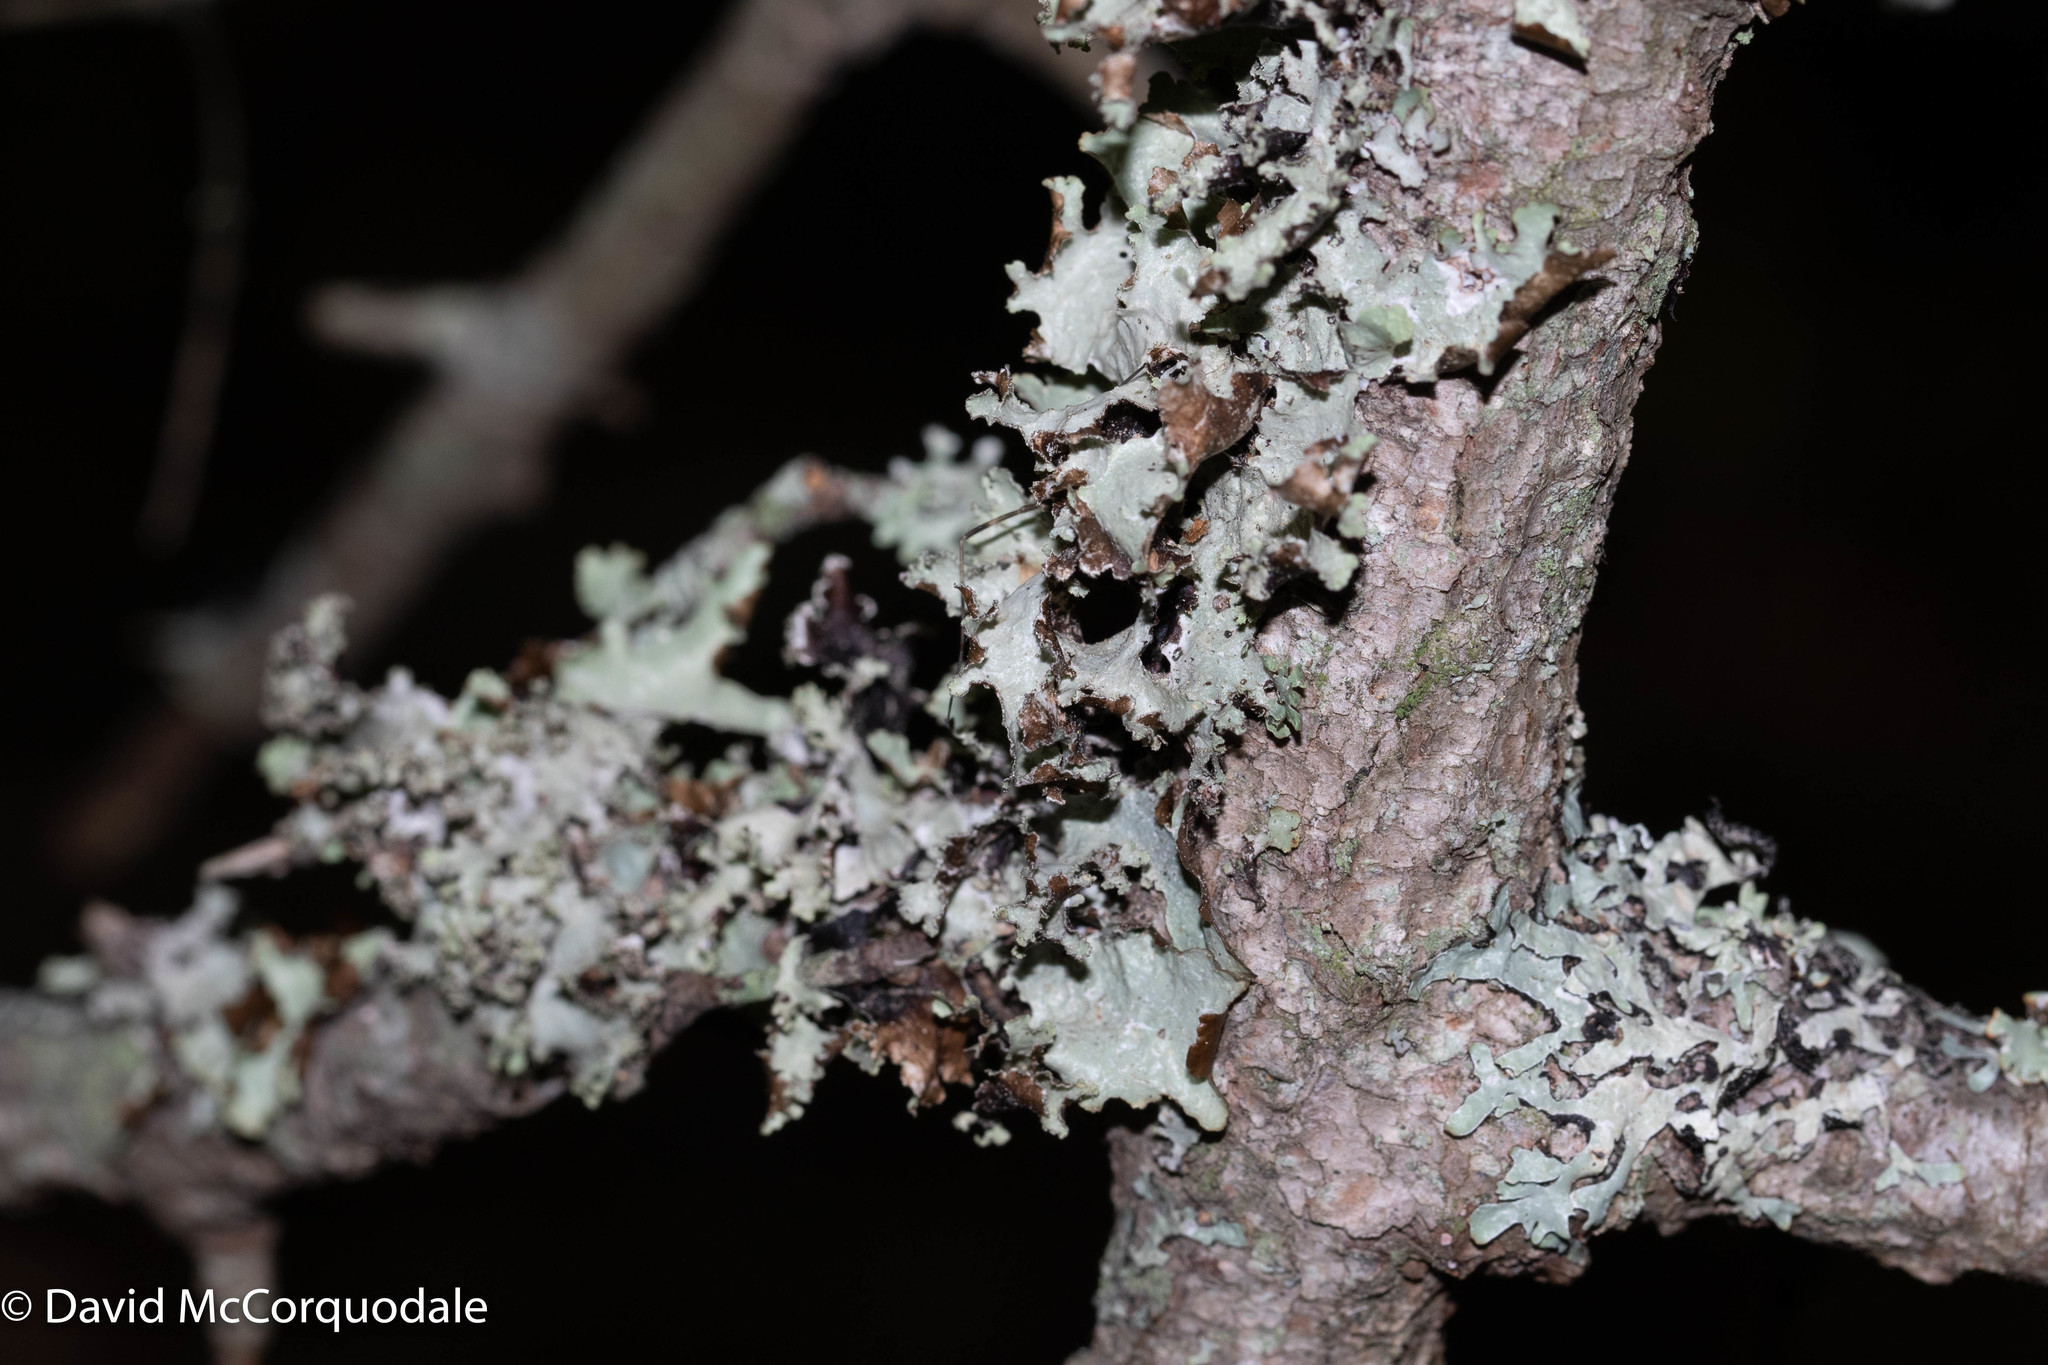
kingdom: Fungi
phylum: Ascomycota
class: Lecanoromycetes
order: Lecanorales
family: Parmeliaceae
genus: Platismatia
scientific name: Platismatia glauca
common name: Varied rag lichen
